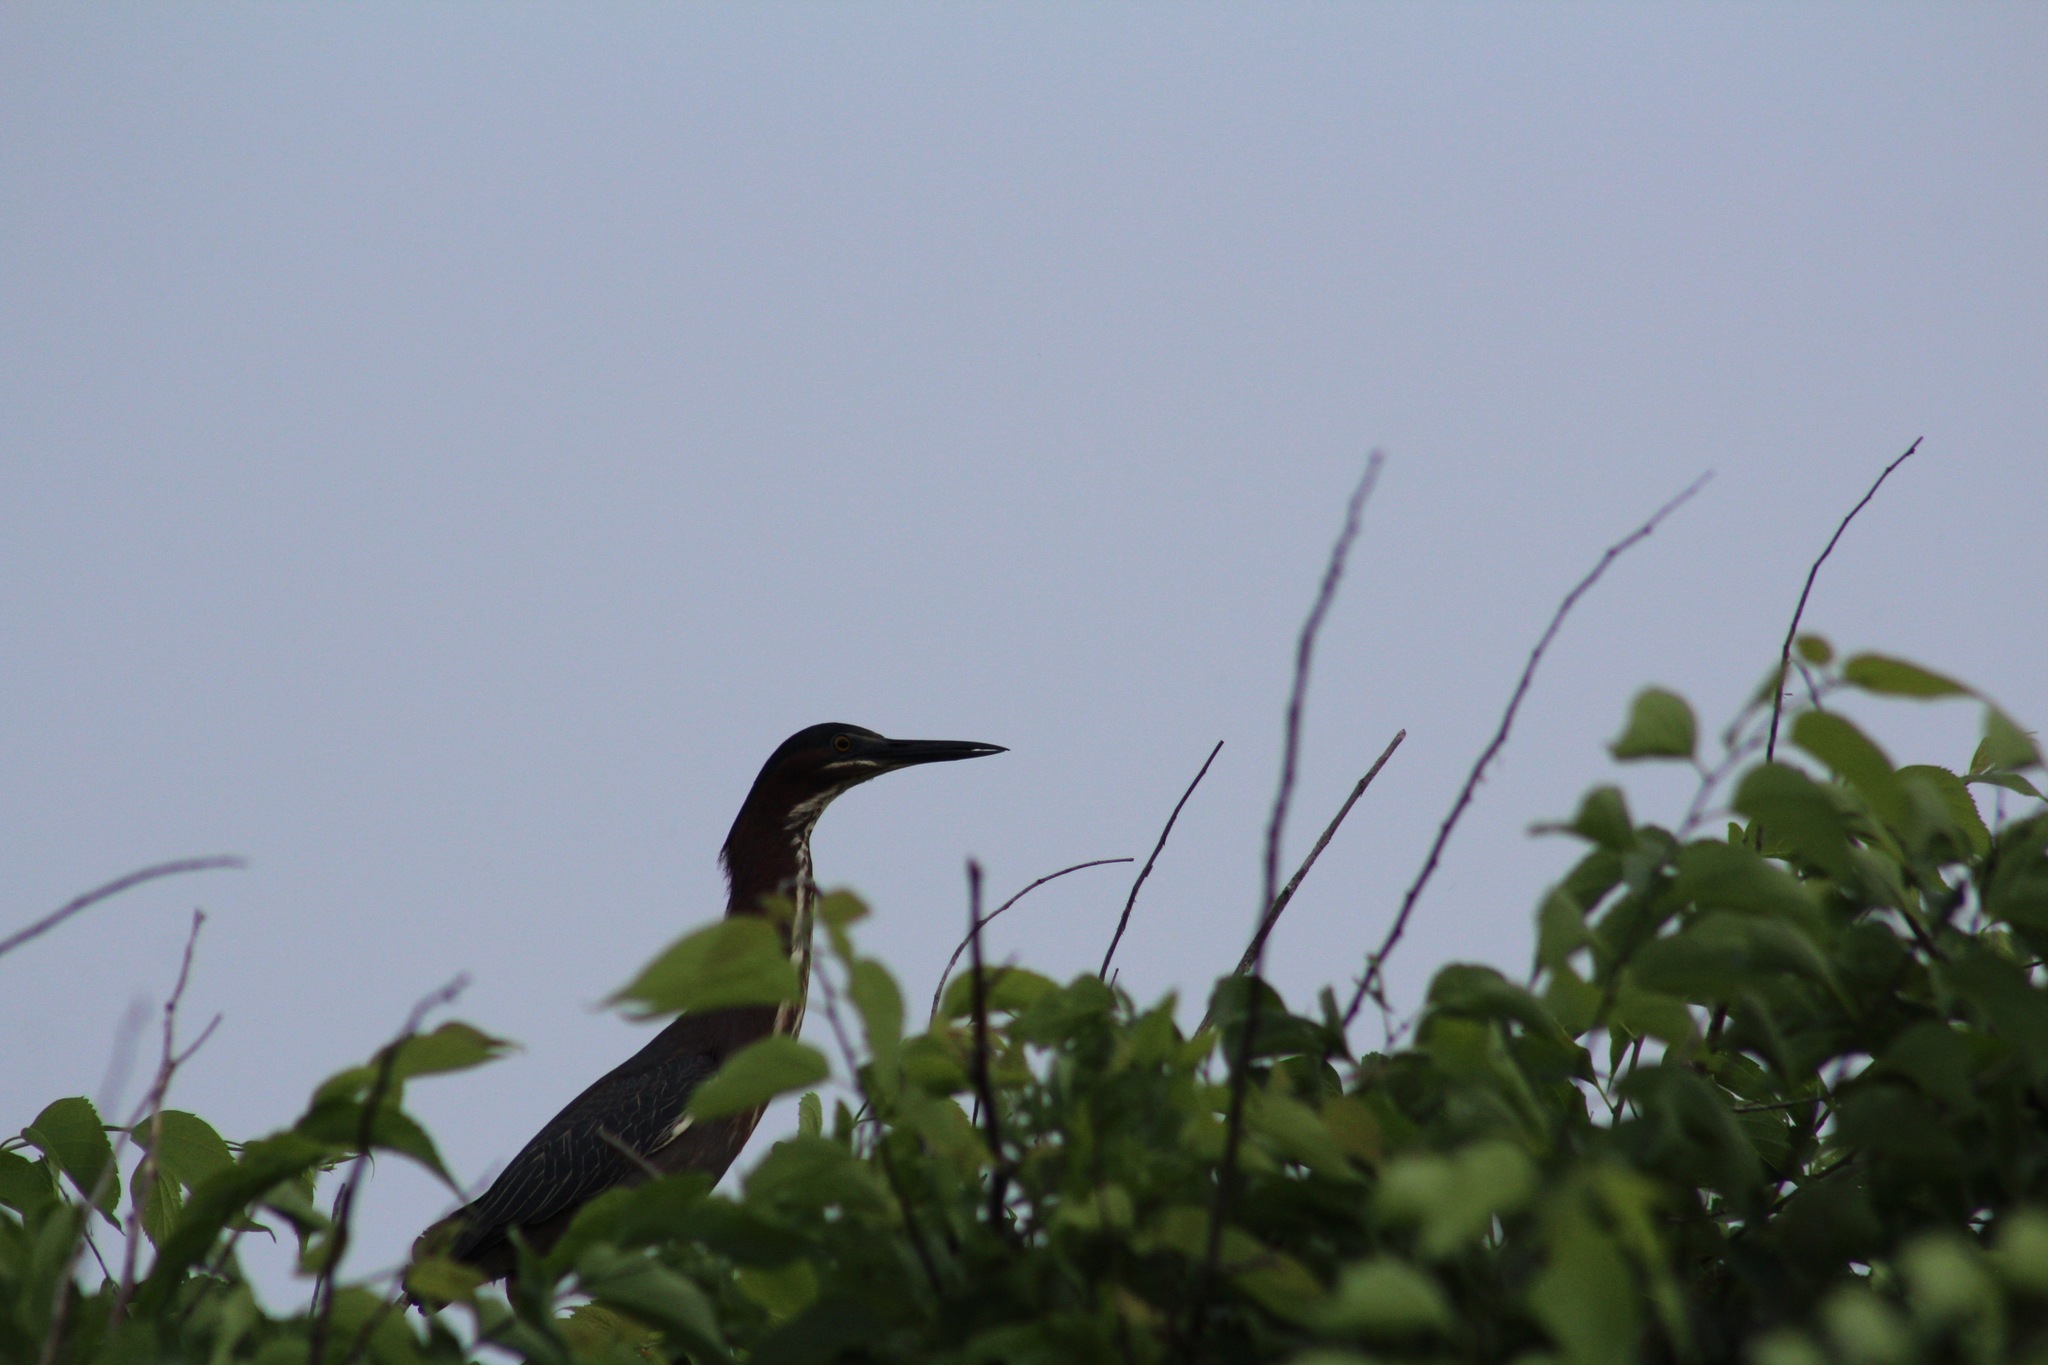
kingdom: Animalia
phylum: Chordata
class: Aves
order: Pelecaniformes
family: Ardeidae
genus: Butorides
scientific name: Butorides virescens
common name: Green heron
